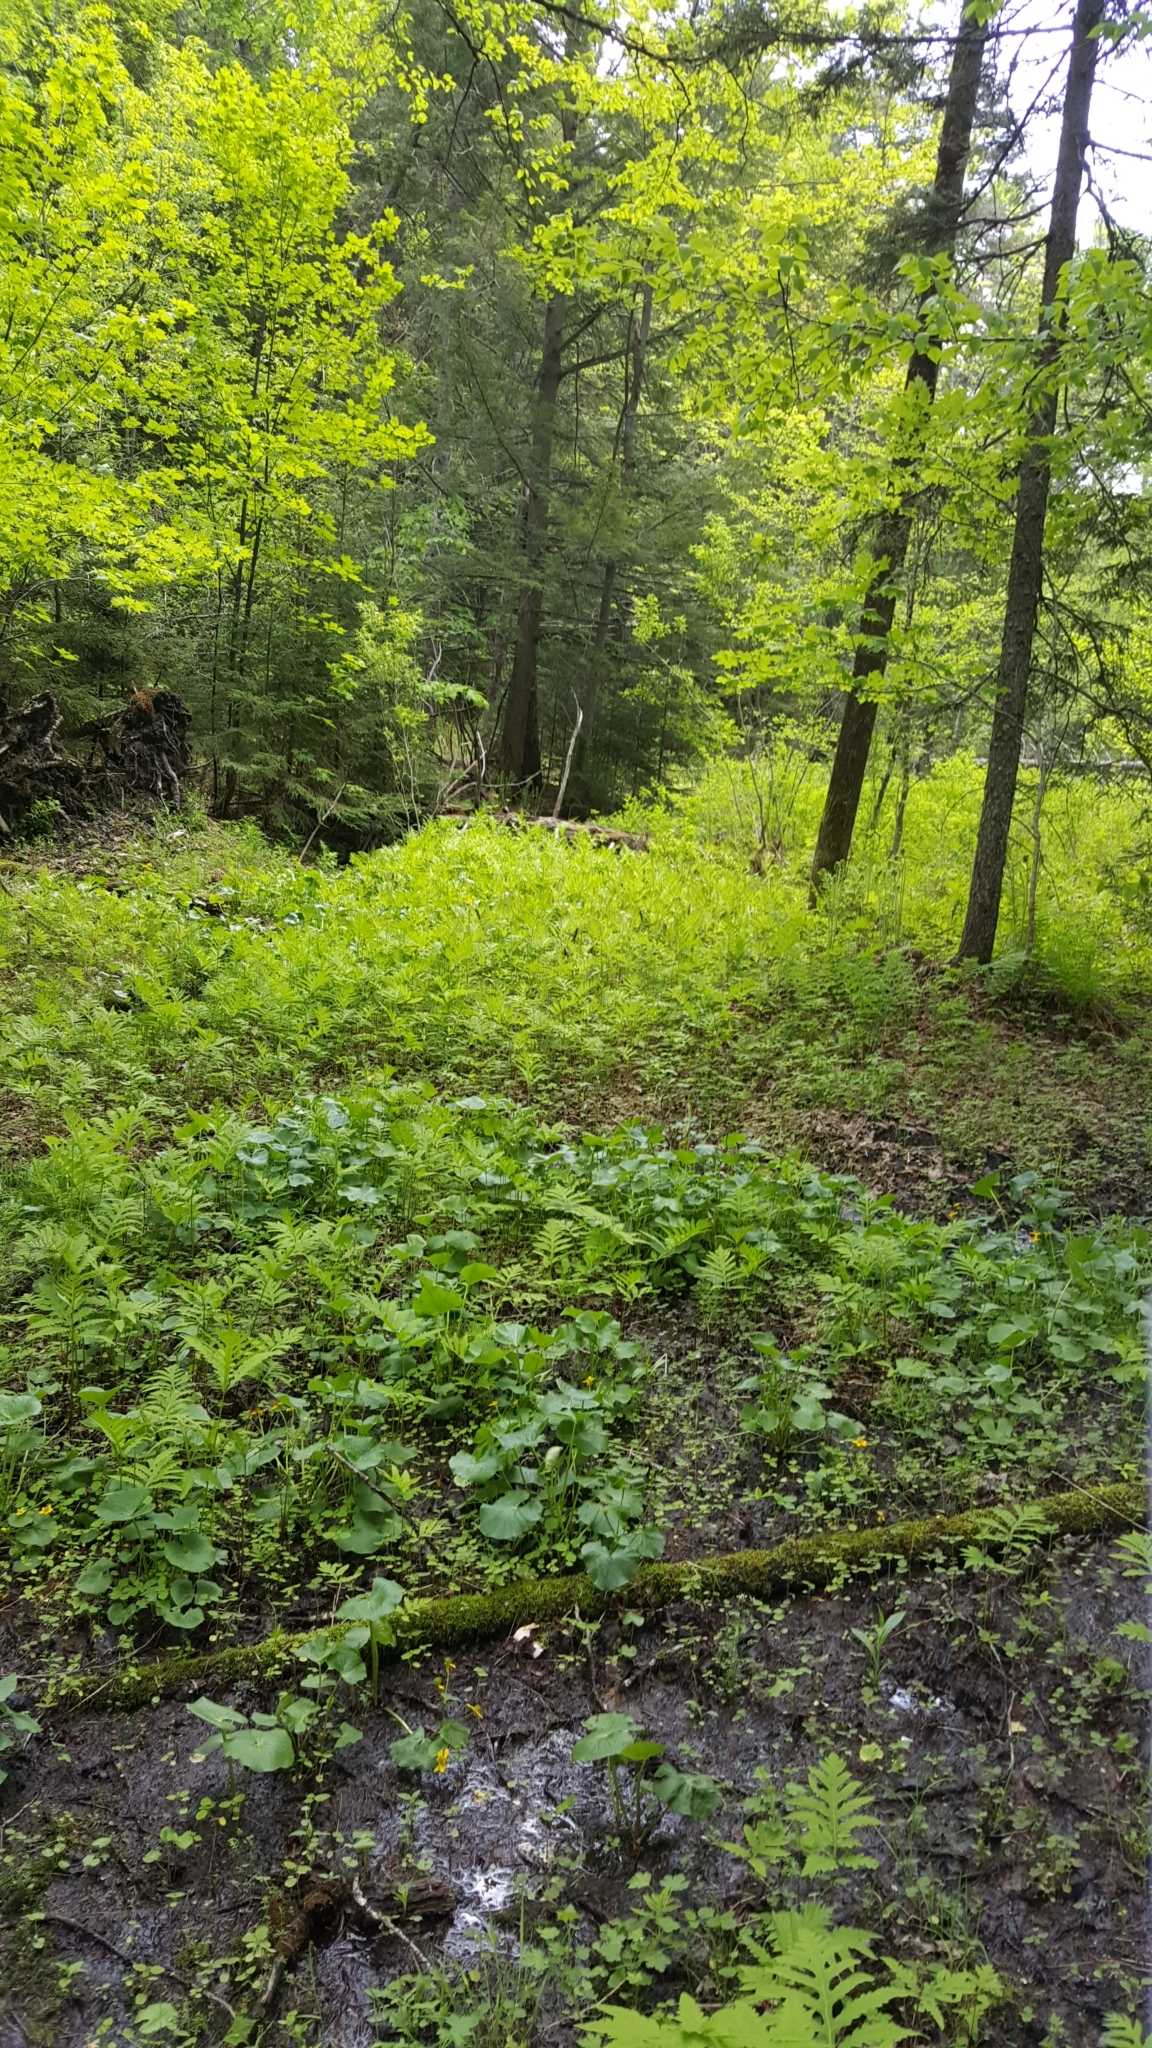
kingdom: Plantae
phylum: Tracheophyta
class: Pinopsida
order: Pinales
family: Pinaceae
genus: Tsuga
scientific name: Tsuga canadensis
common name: Eastern hemlock
